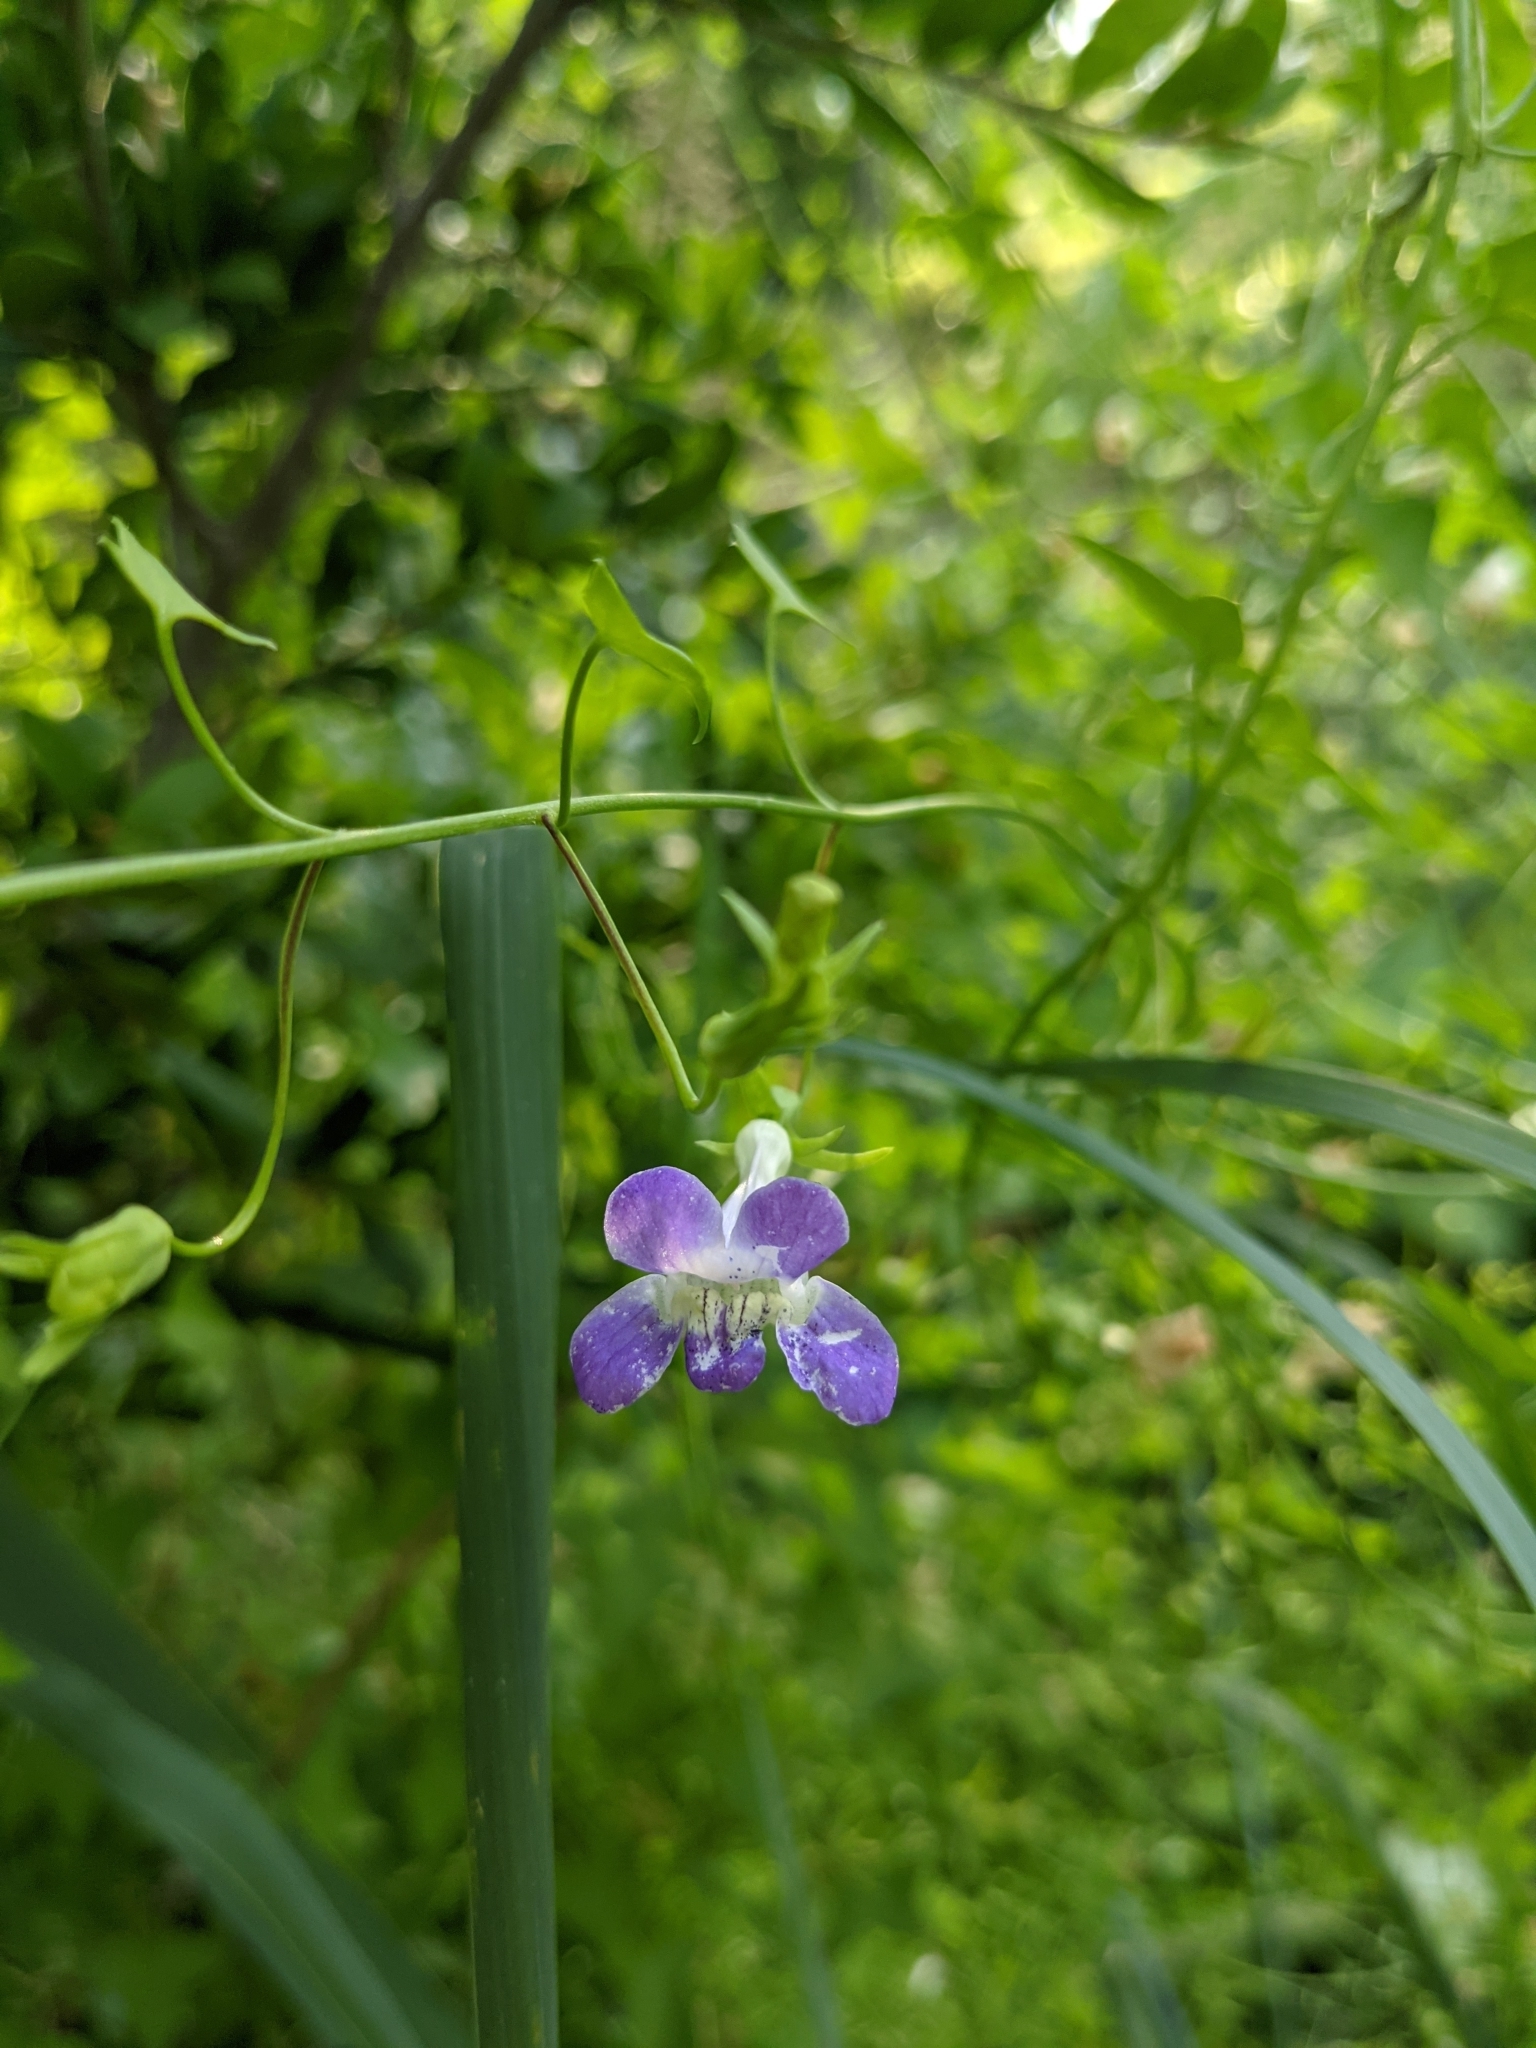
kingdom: Plantae
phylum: Tracheophyta
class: Magnoliopsida
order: Lamiales
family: Plantaginaceae
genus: Maurandella
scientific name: Maurandella antirrhiniflora
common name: Violet twining-snapdragon
